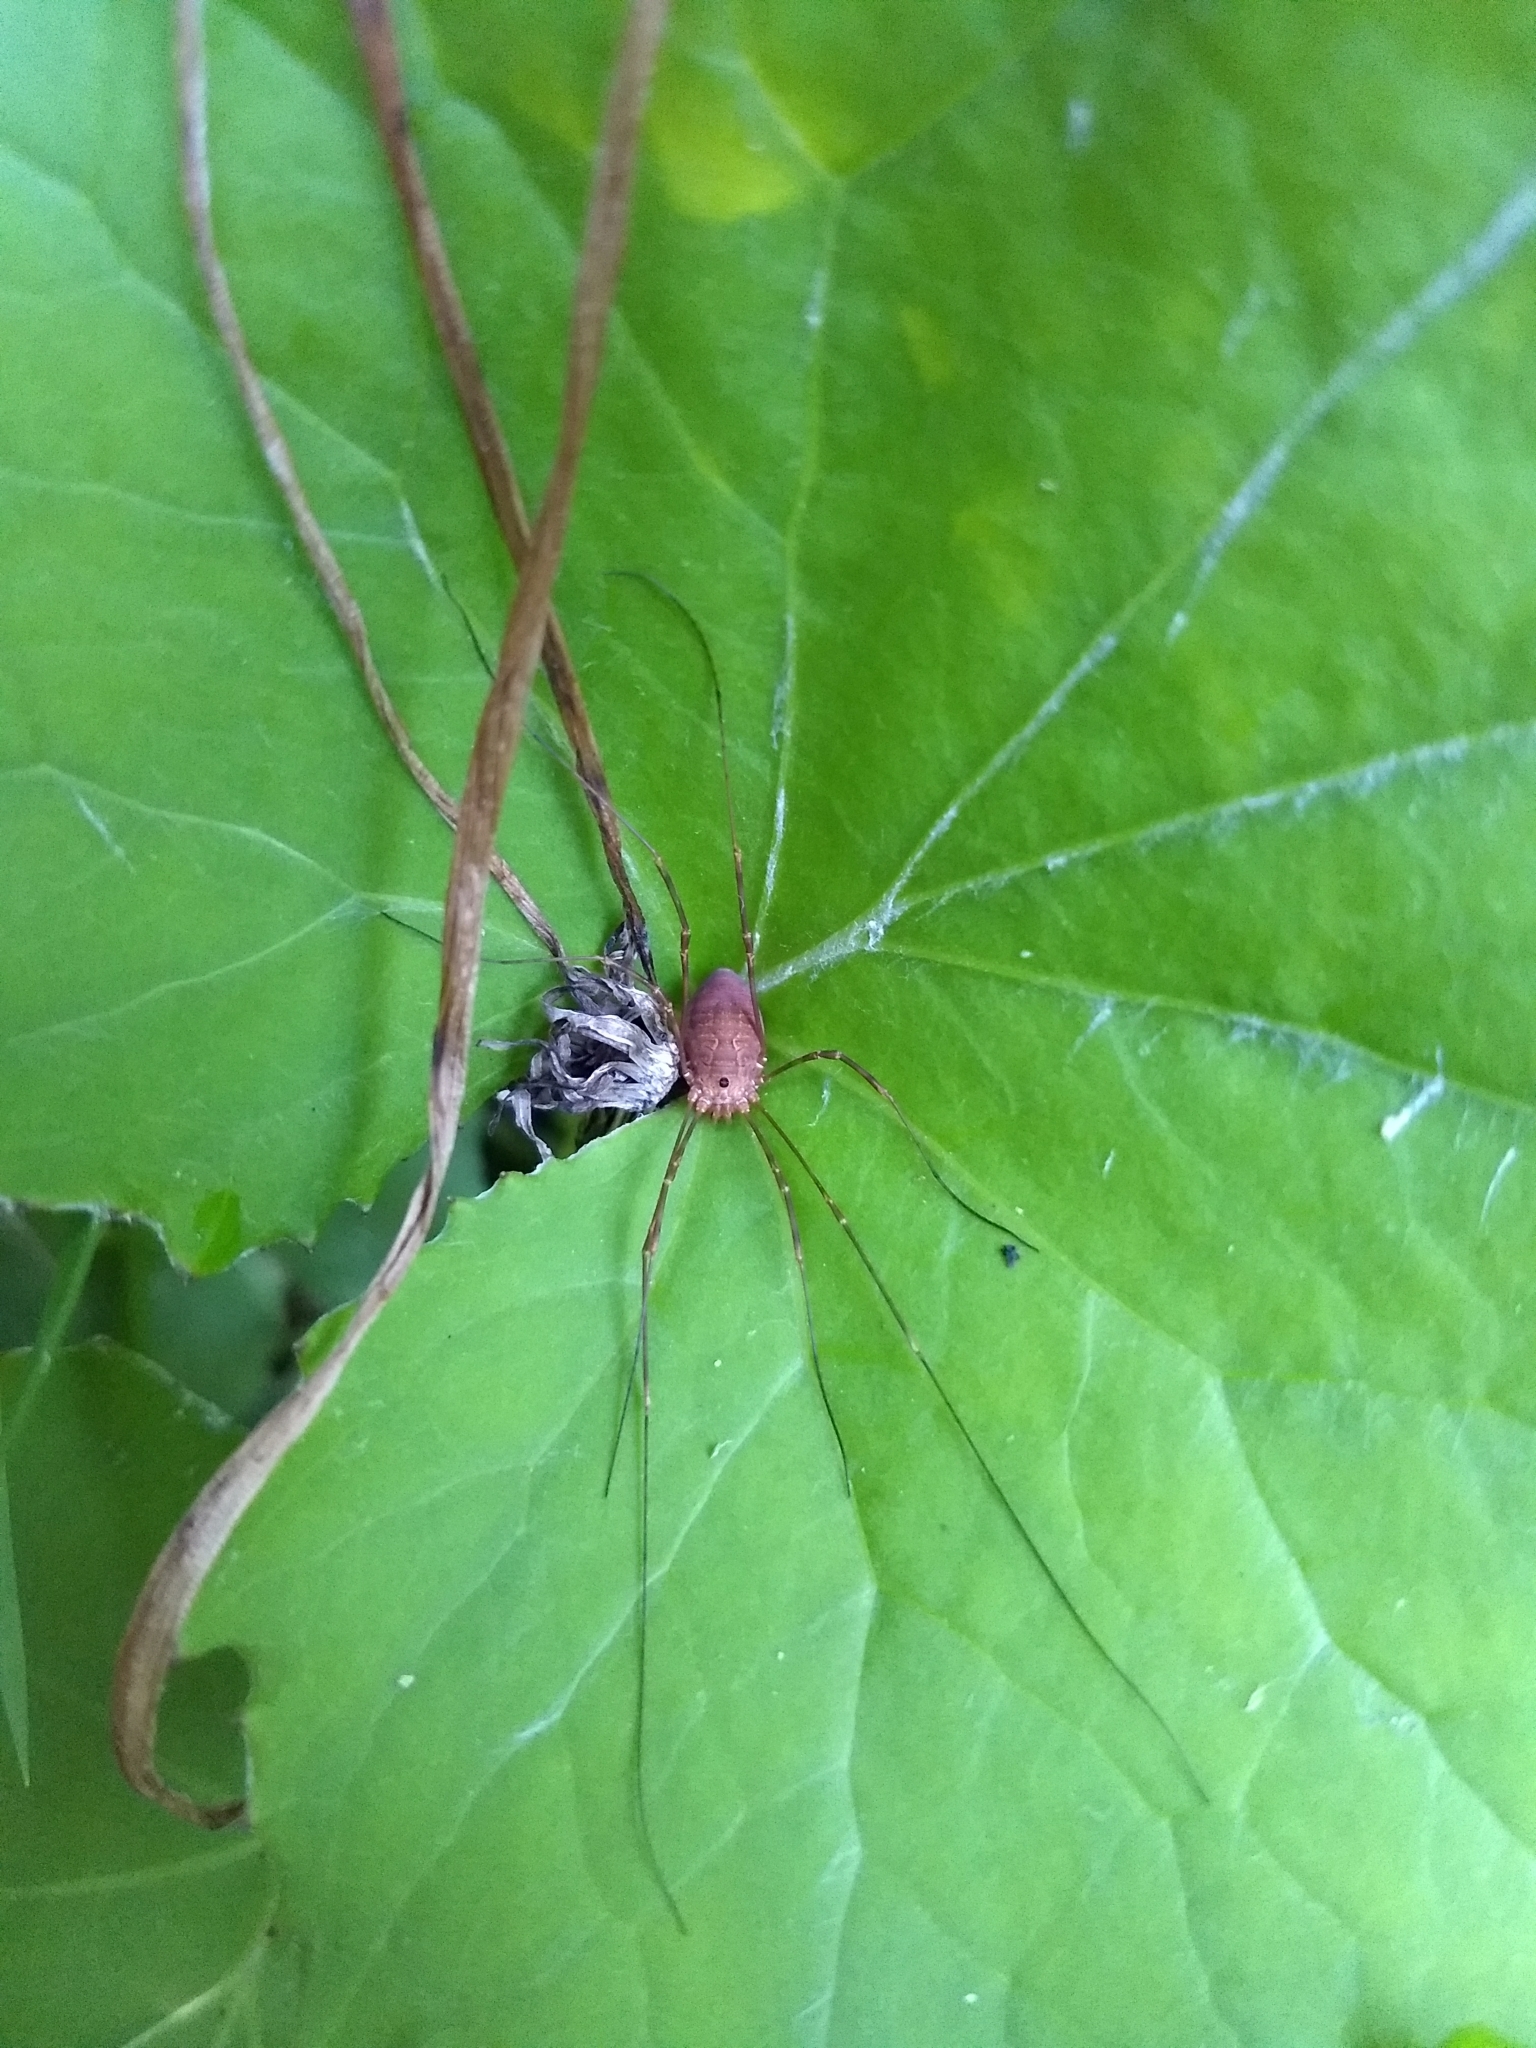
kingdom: Animalia
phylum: Arthropoda
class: Arachnida
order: Opiliones
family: Sclerosomatidae
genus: Leiobunum
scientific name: Leiobunum flavum
